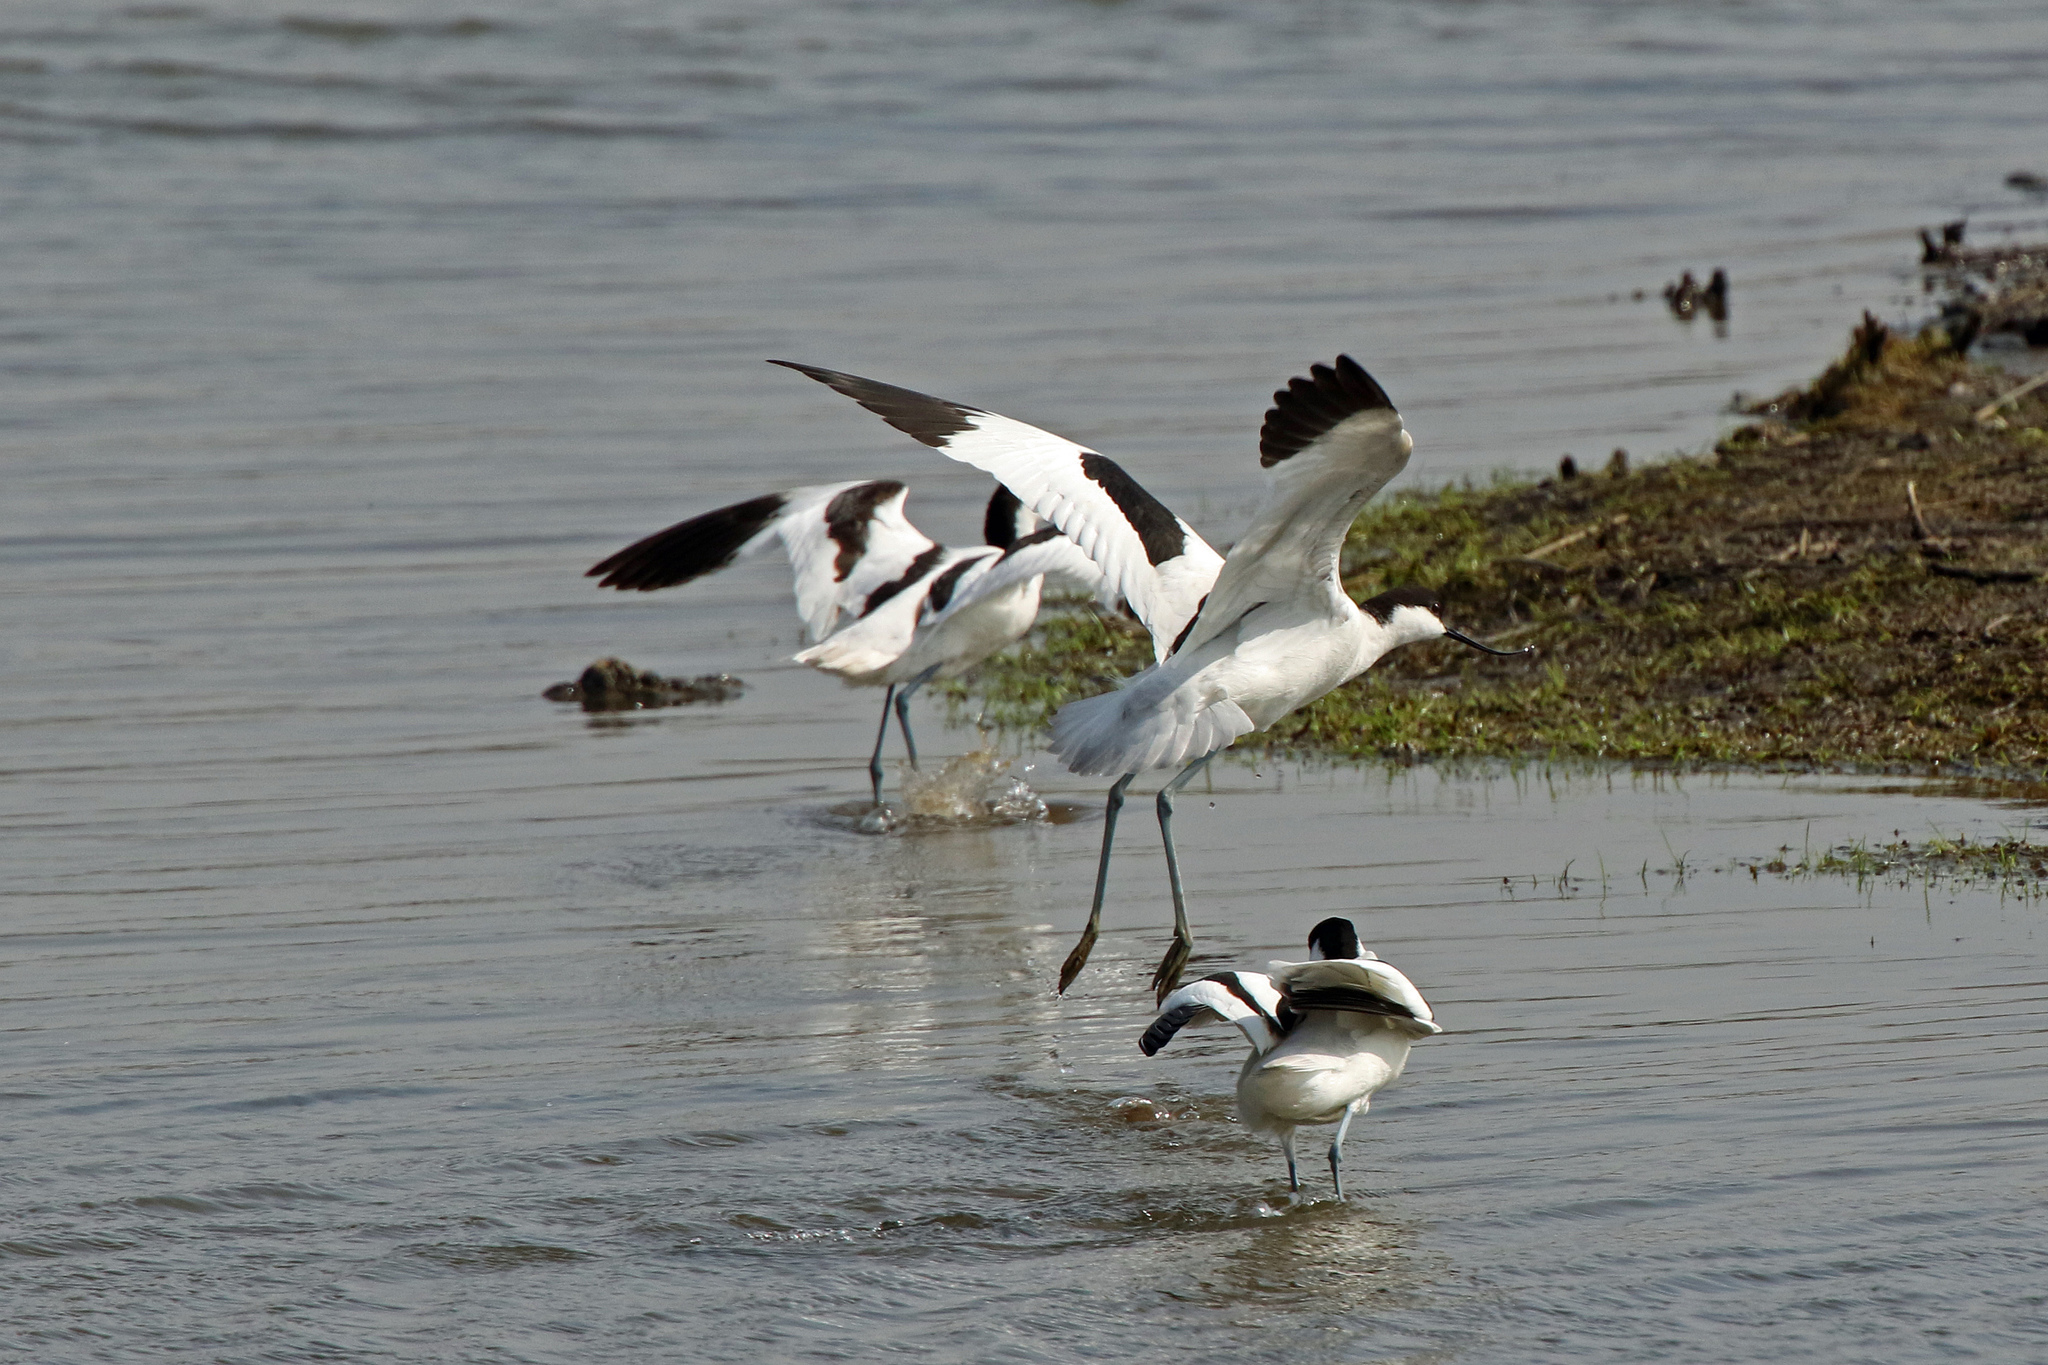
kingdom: Animalia
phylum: Chordata
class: Aves
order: Charadriiformes
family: Recurvirostridae
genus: Recurvirostra
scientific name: Recurvirostra avosetta
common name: Pied avocet
